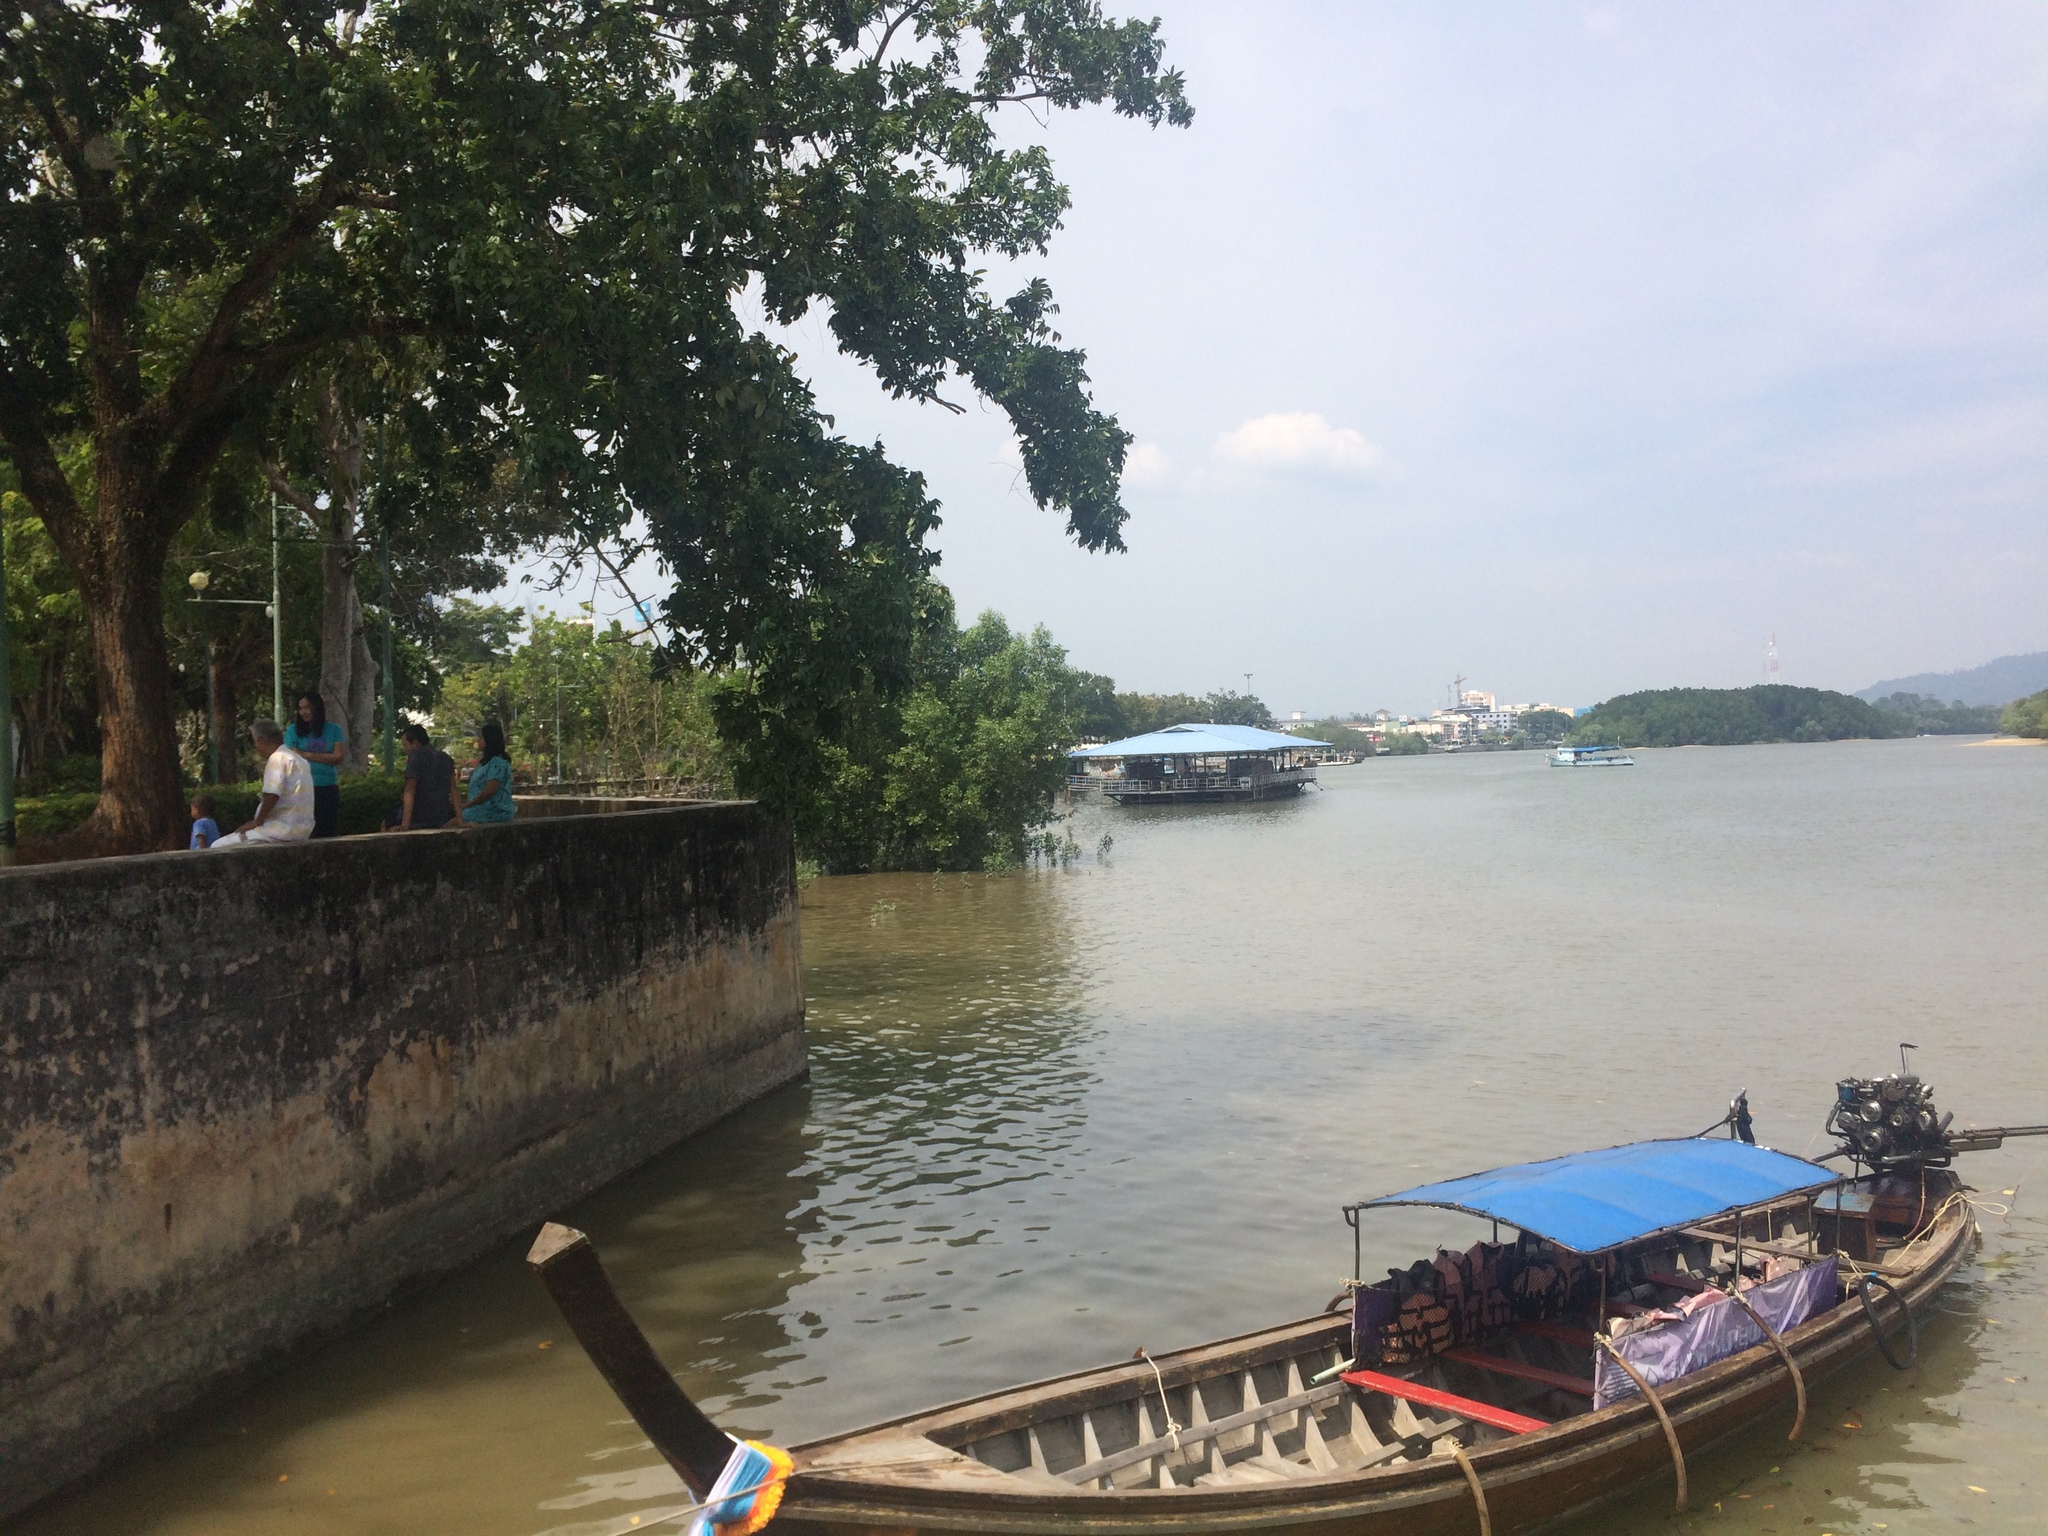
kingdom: Plantae
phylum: Tracheophyta
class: Magnoliopsida
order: Ericales
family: Lecythidaceae
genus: Barringtonia
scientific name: Barringtonia asiatica
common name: Mango-pine
